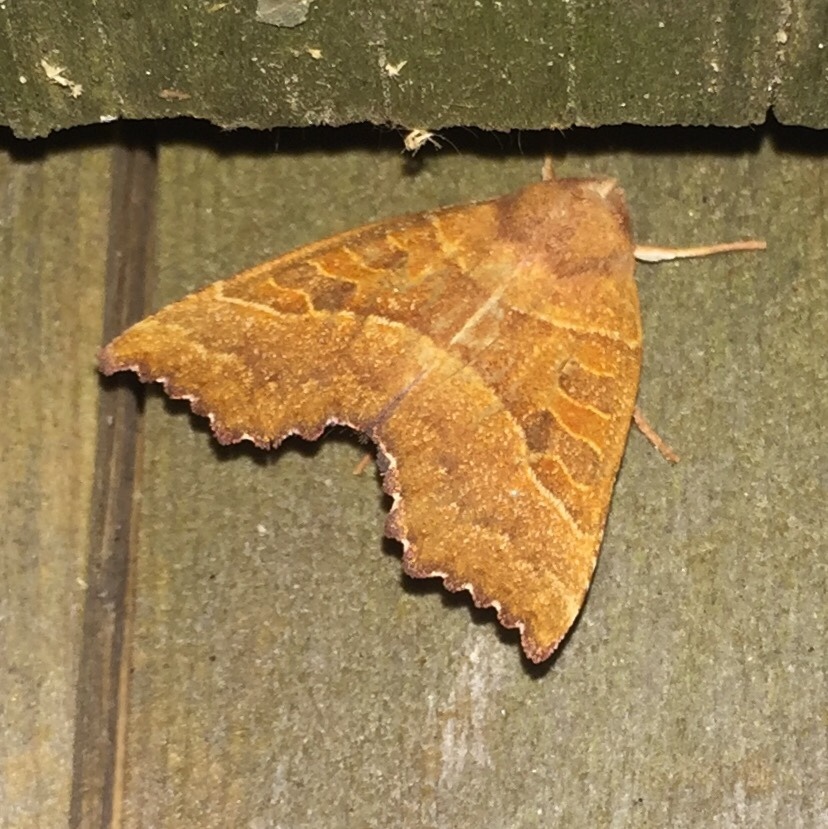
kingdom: Animalia
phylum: Arthropoda
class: Insecta
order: Lepidoptera
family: Noctuidae
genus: Eucirroedia
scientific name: Eucirroedia pampina
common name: Scalloped sallow
